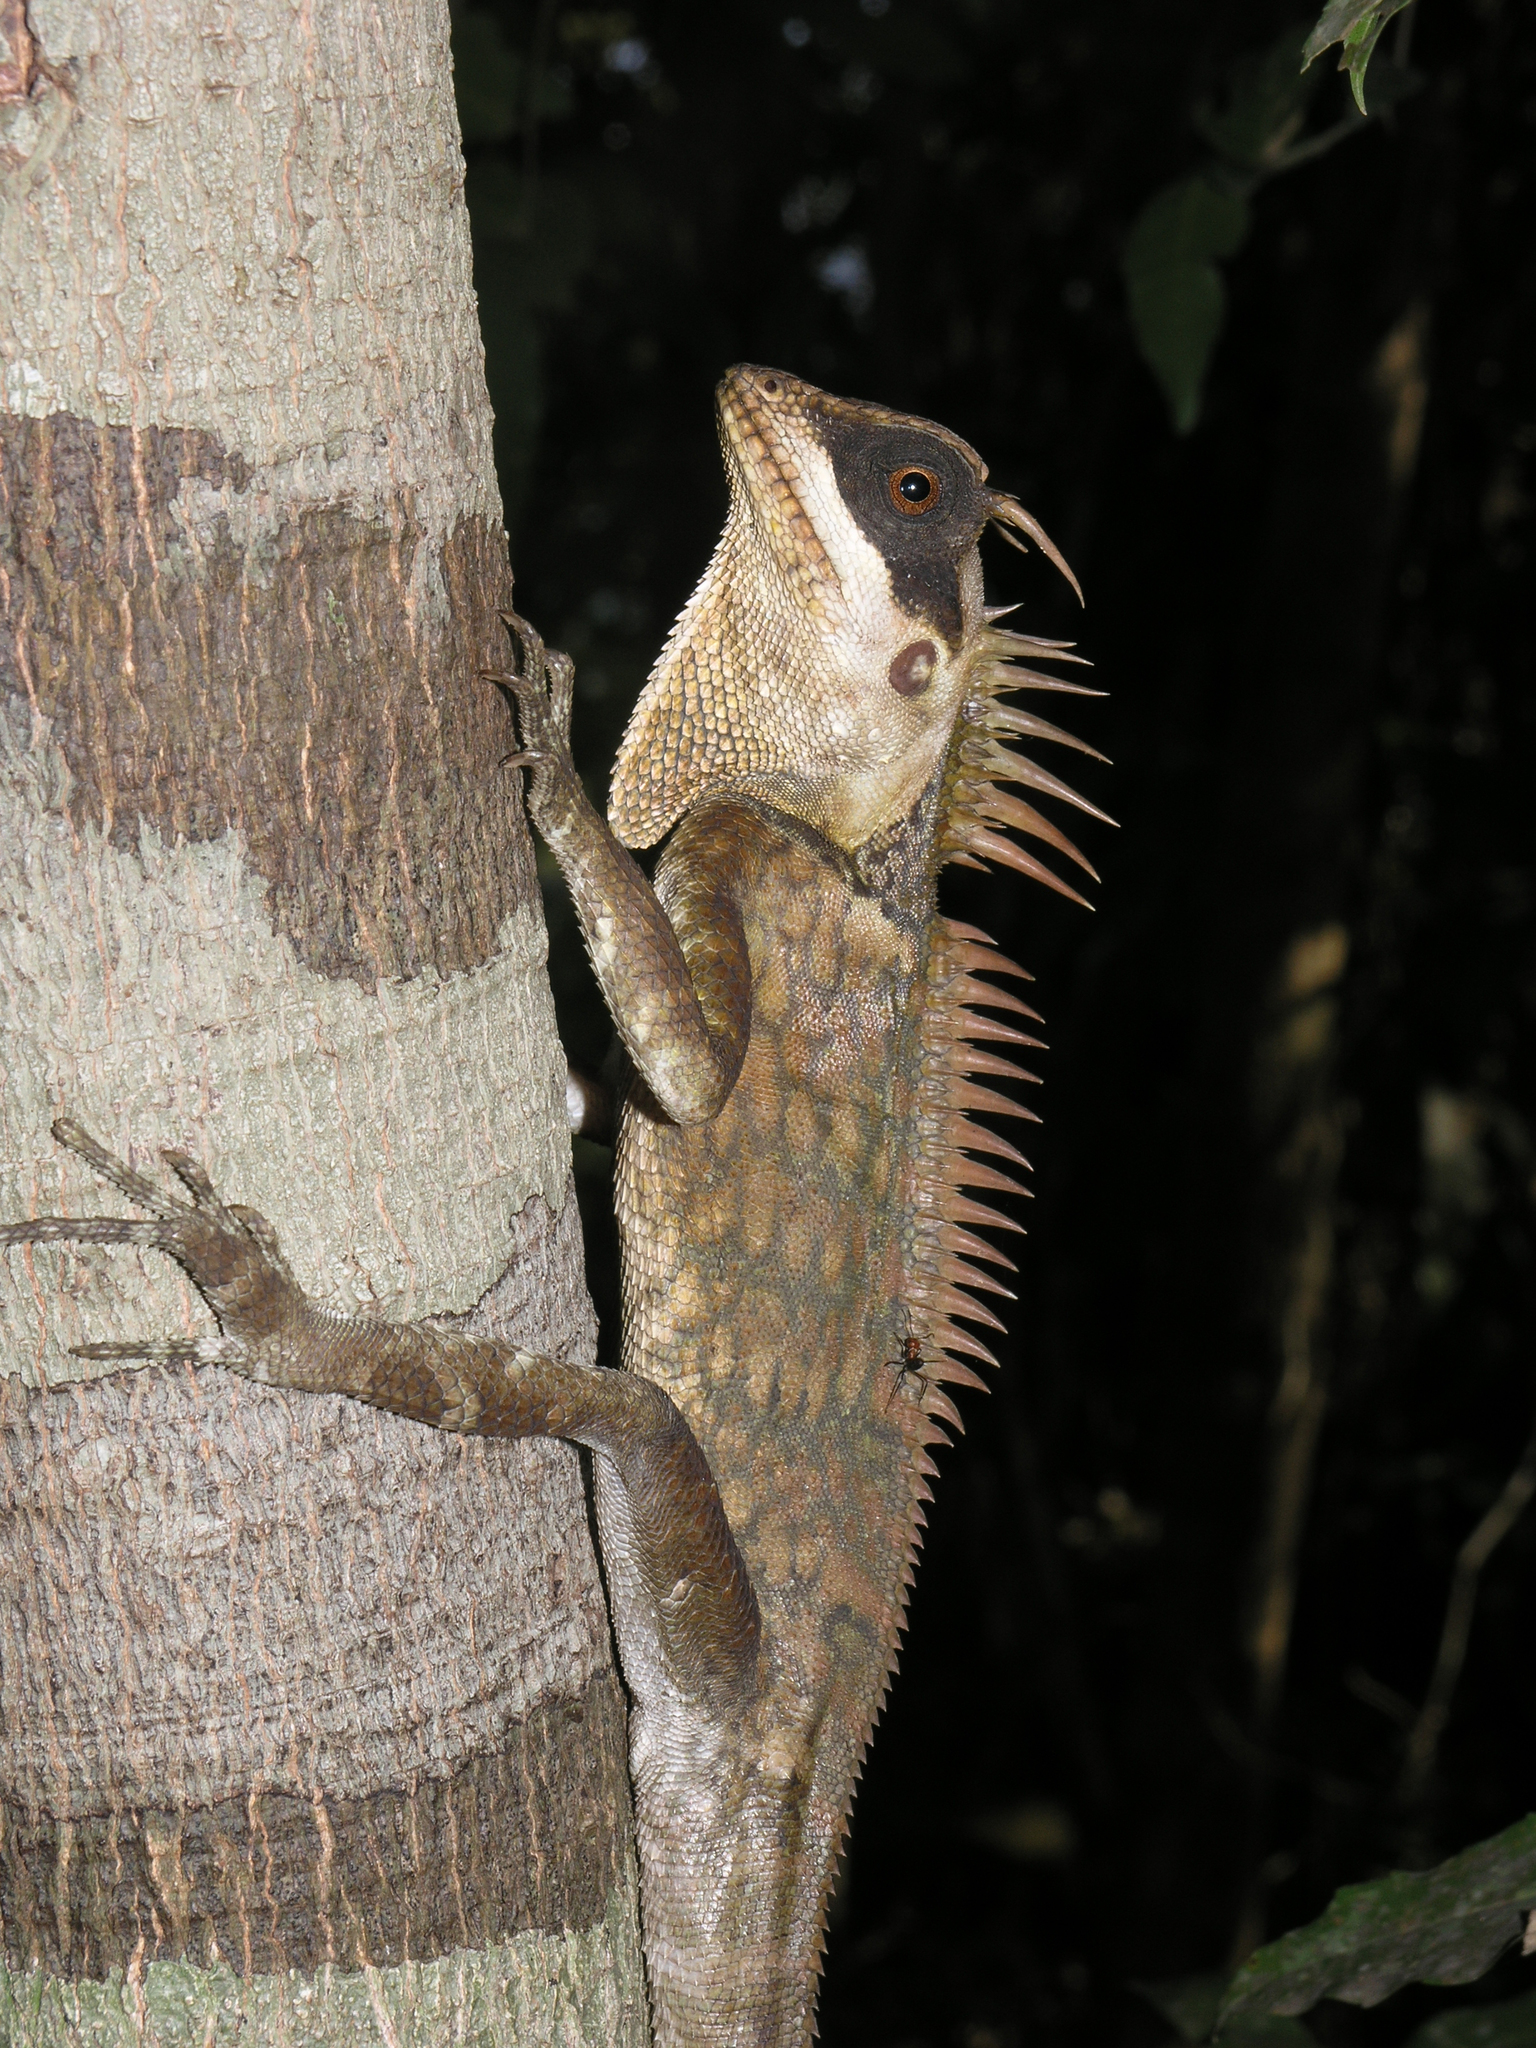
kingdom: Animalia
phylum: Chordata
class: Squamata
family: Agamidae
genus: Acanthosaura
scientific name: Acanthosaura cardamomensis
